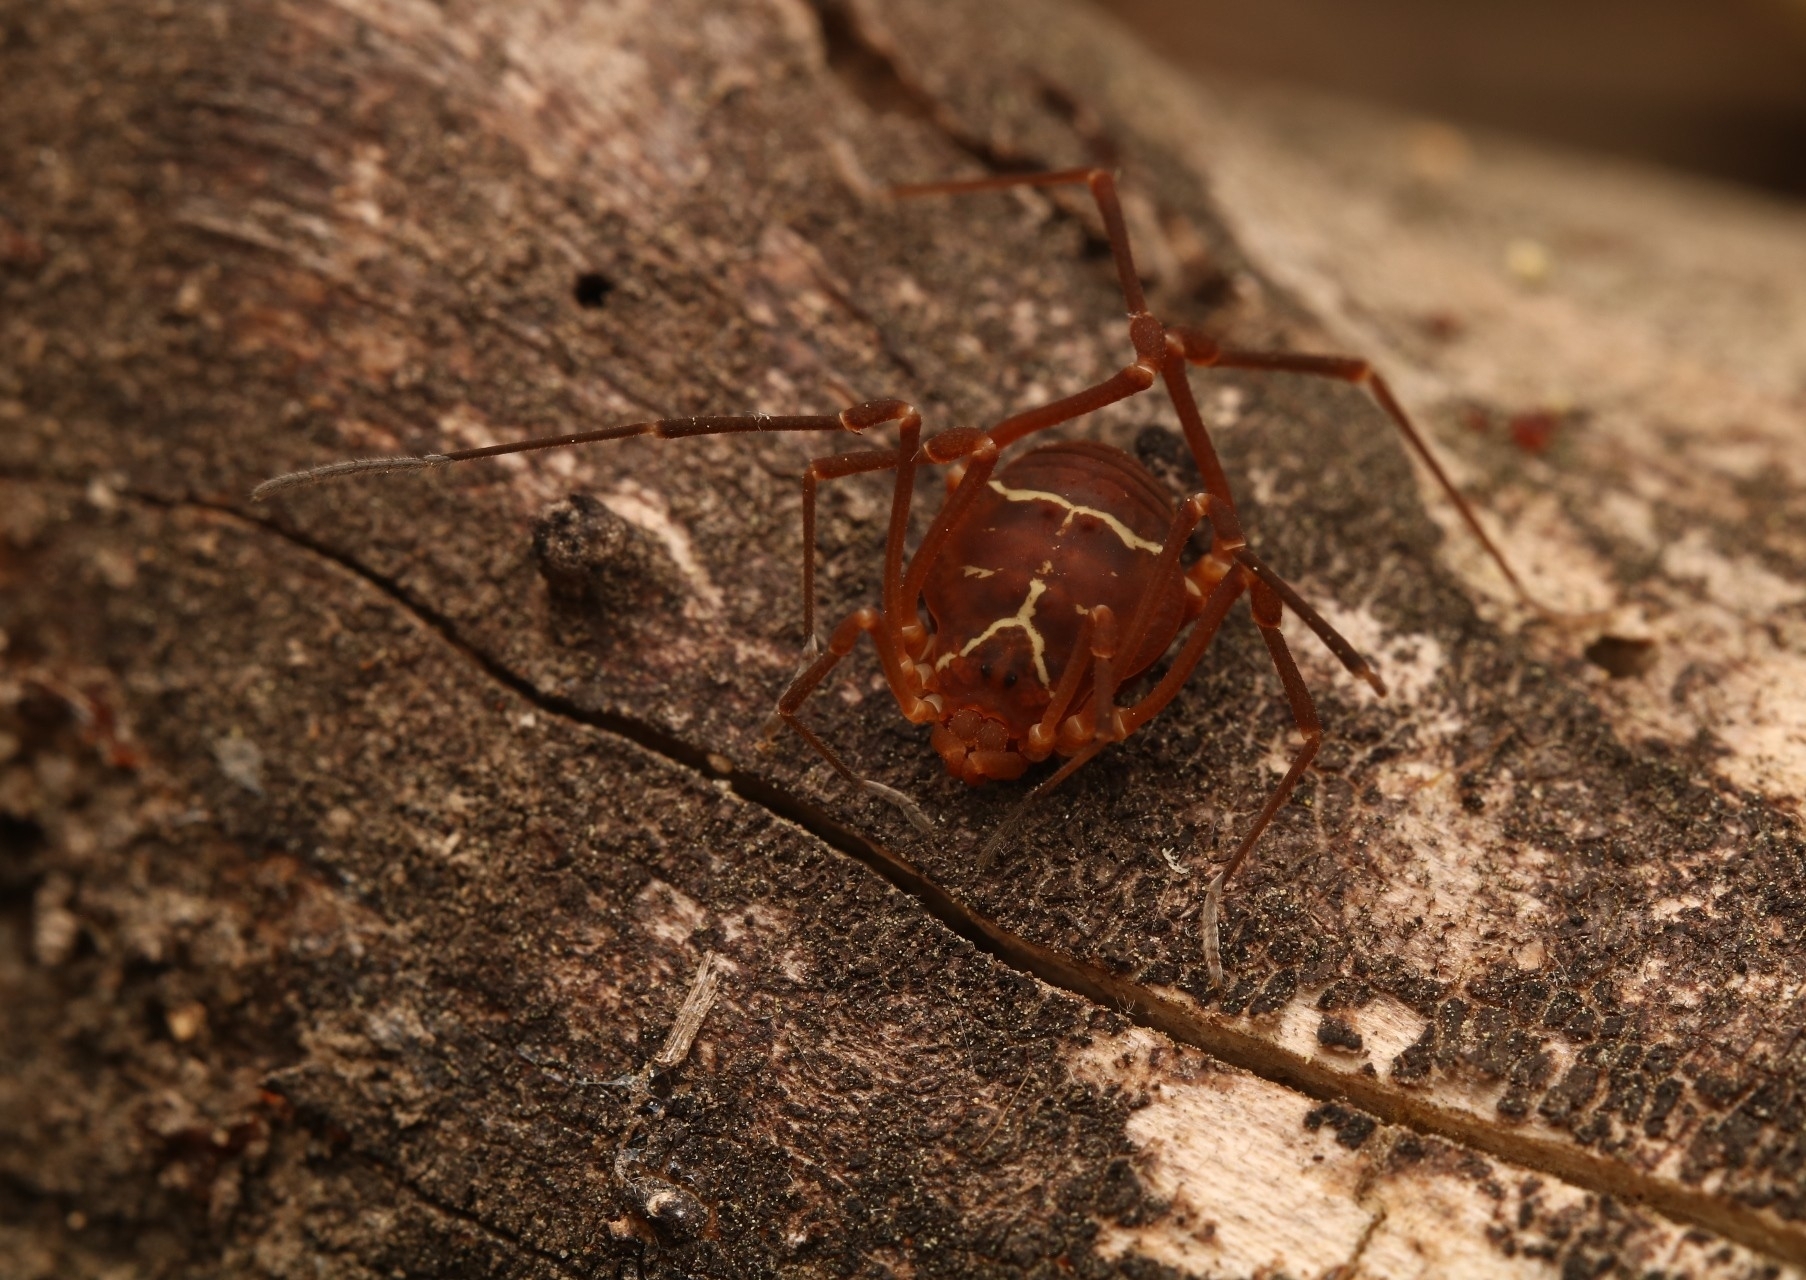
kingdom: Animalia
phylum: Arthropoda
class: Arachnida
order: Opiliones
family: Cosmetidae
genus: Libitioides
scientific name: Libitioides sayi
